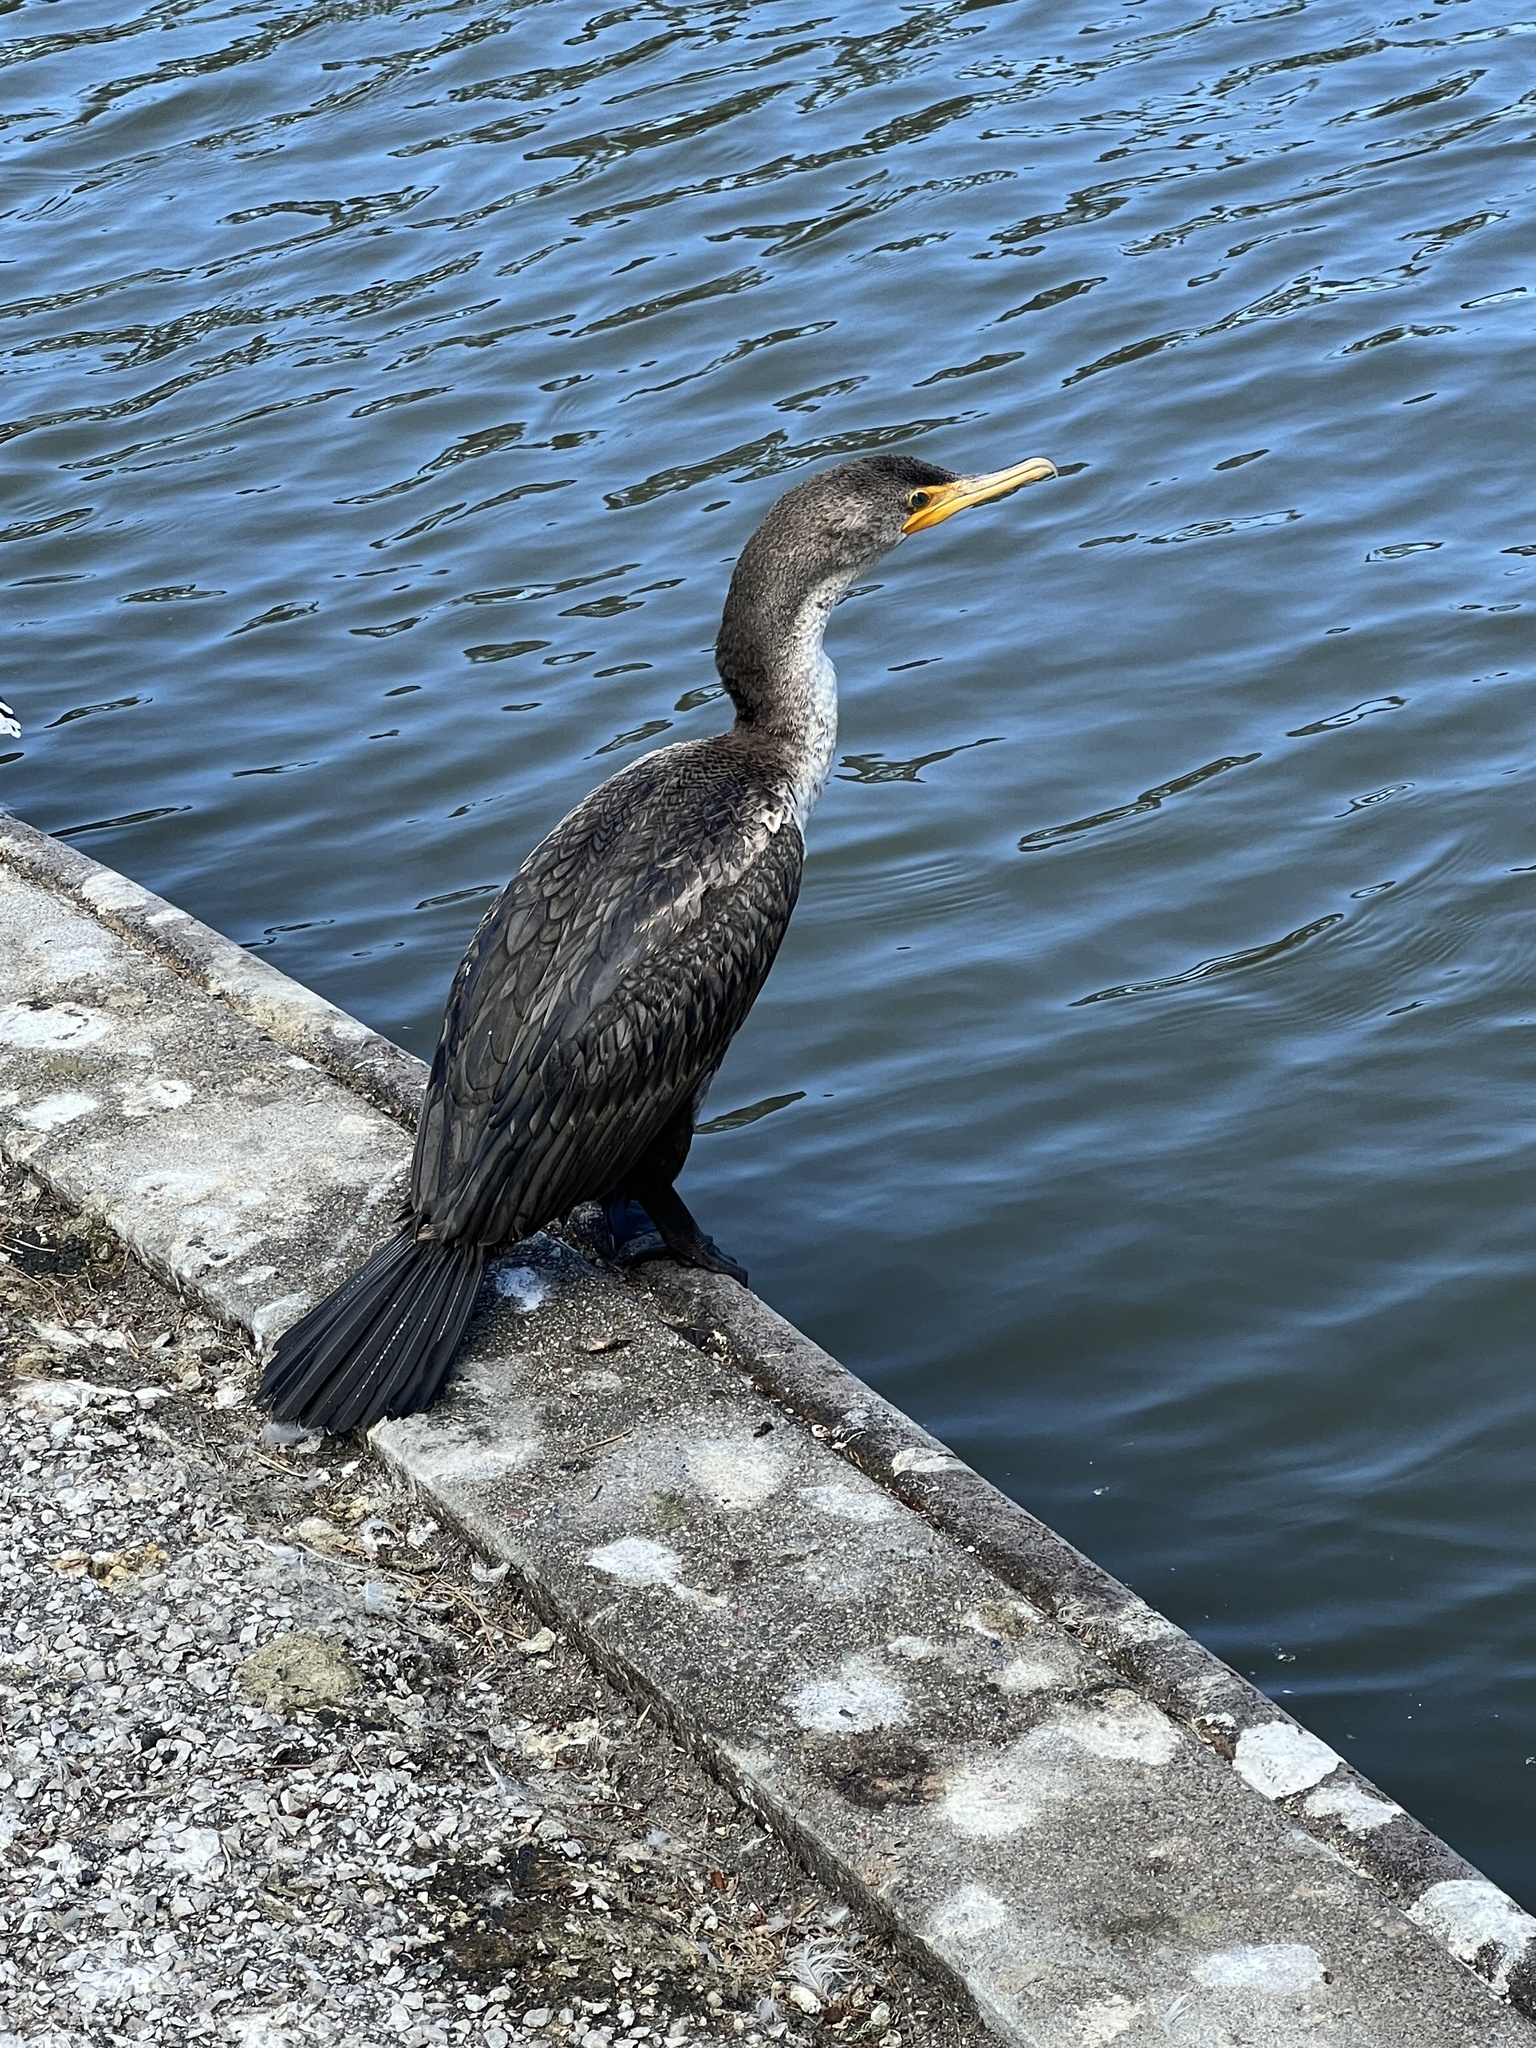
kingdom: Animalia
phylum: Chordata
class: Aves
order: Suliformes
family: Phalacrocoracidae
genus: Phalacrocorax
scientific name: Phalacrocorax auritus
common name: Double-crested cormorant
